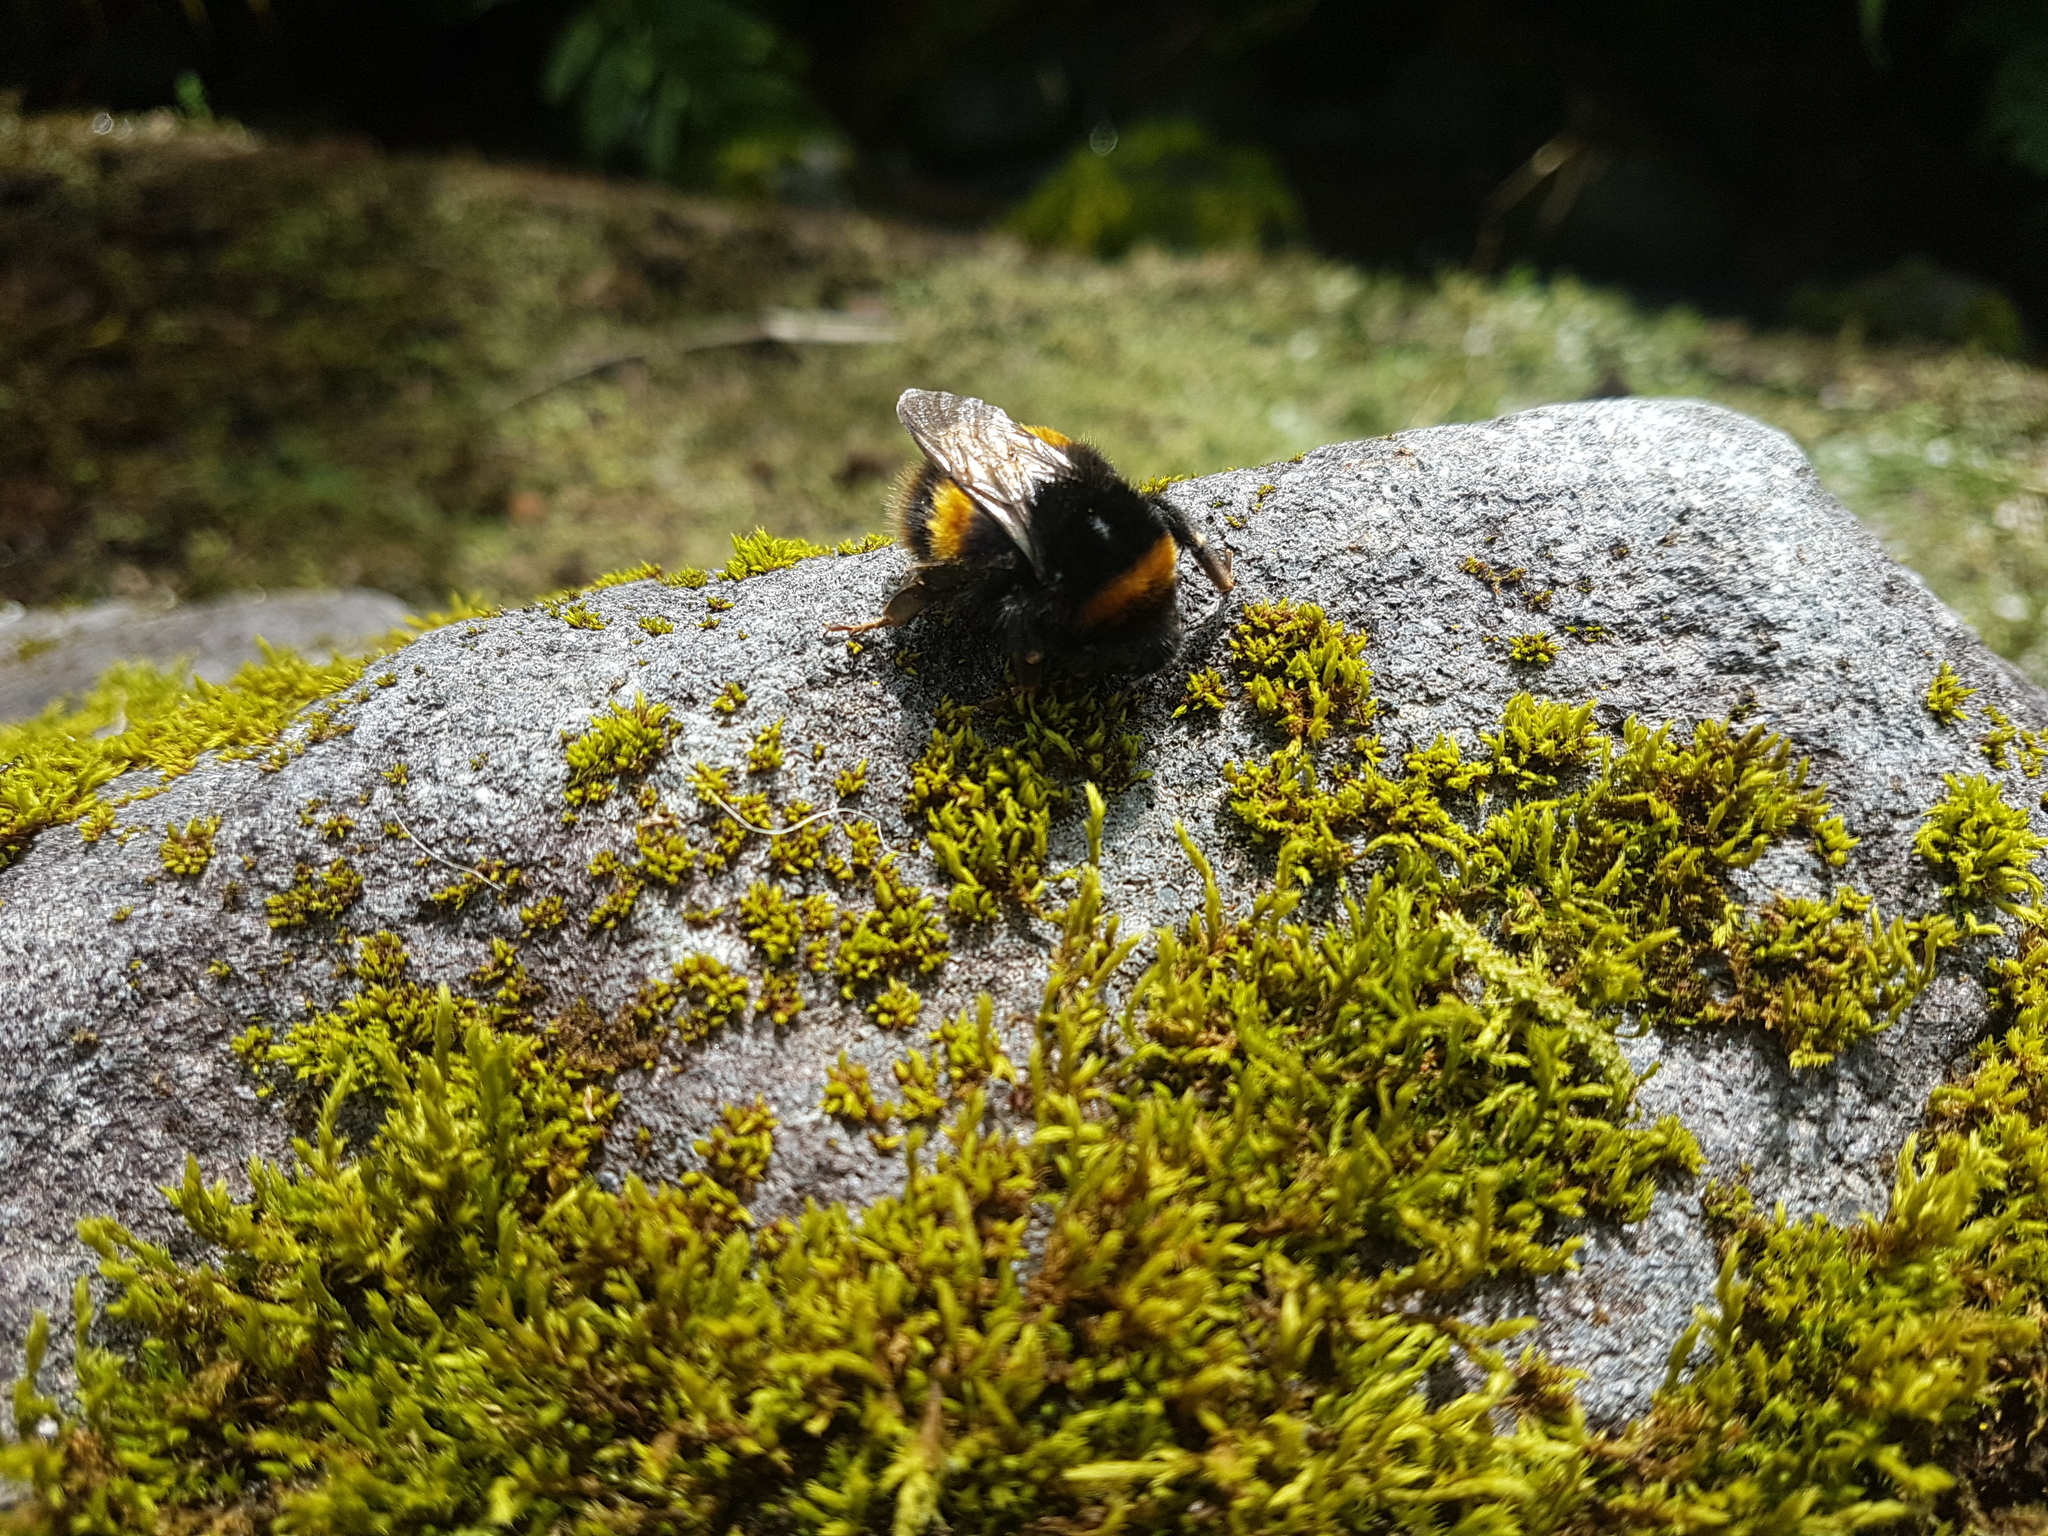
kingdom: Animalia
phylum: Arthropoda
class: Insecta
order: Hymenoptera
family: Apidae
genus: Bombus
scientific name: Bombus terrestris
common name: Buff-tailed bumblebee
